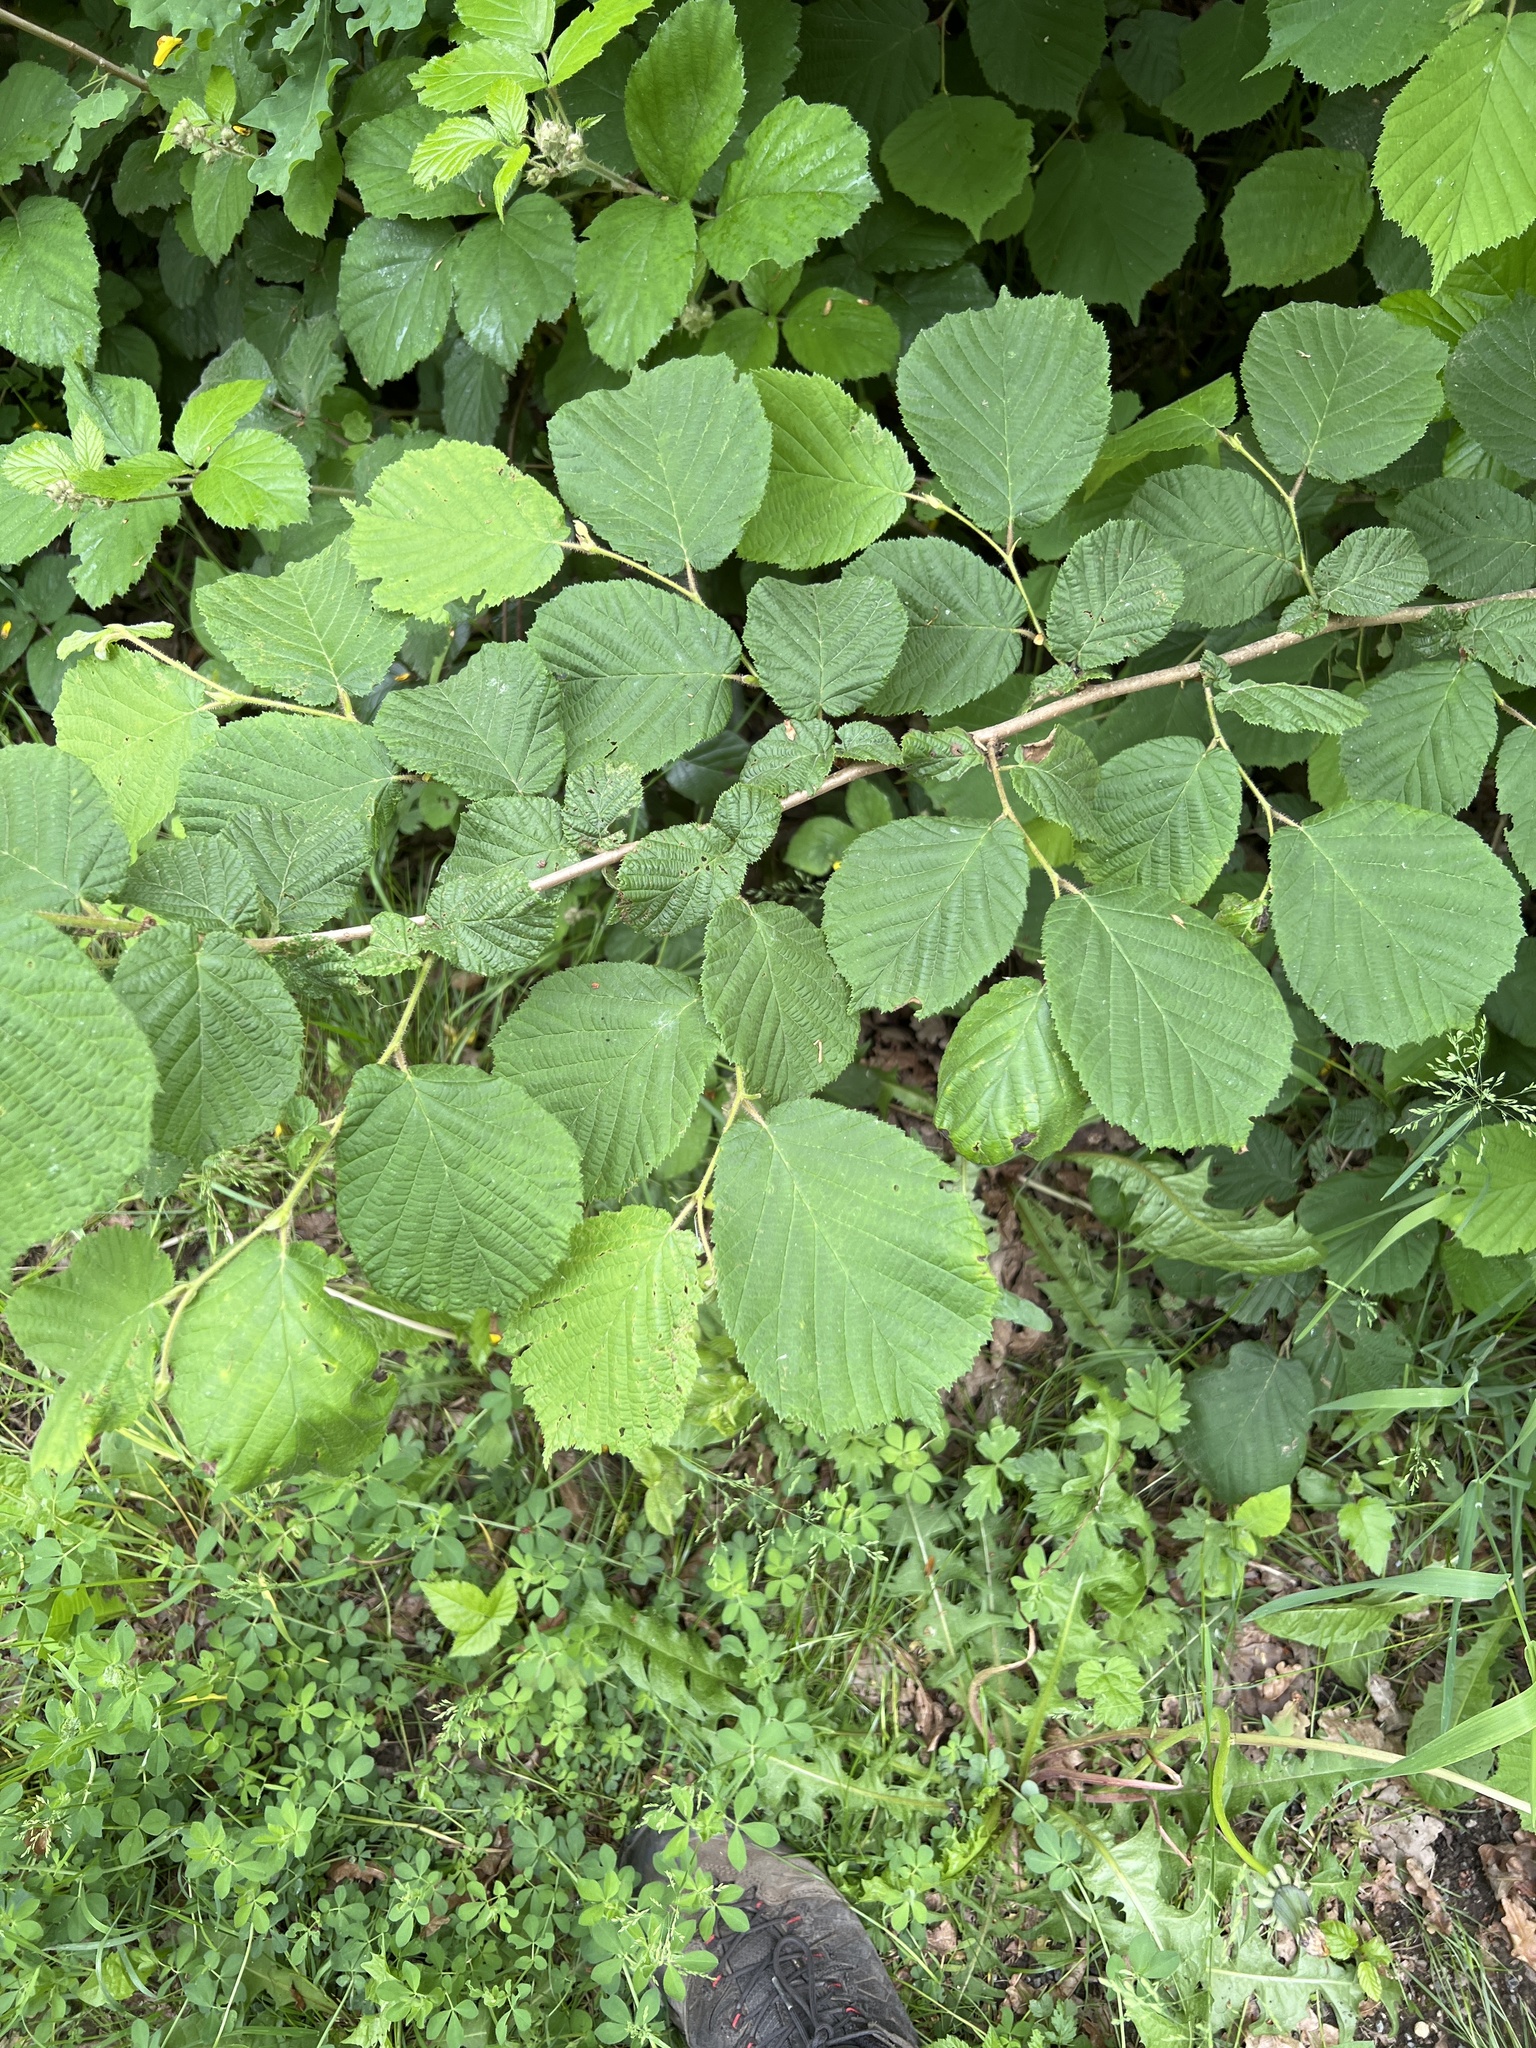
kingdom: Plantae
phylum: Tracheophyta
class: Magnoliopsida
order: Fagales
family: Betulaceae
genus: Corylus
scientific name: Corylus avellana
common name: European hazel
